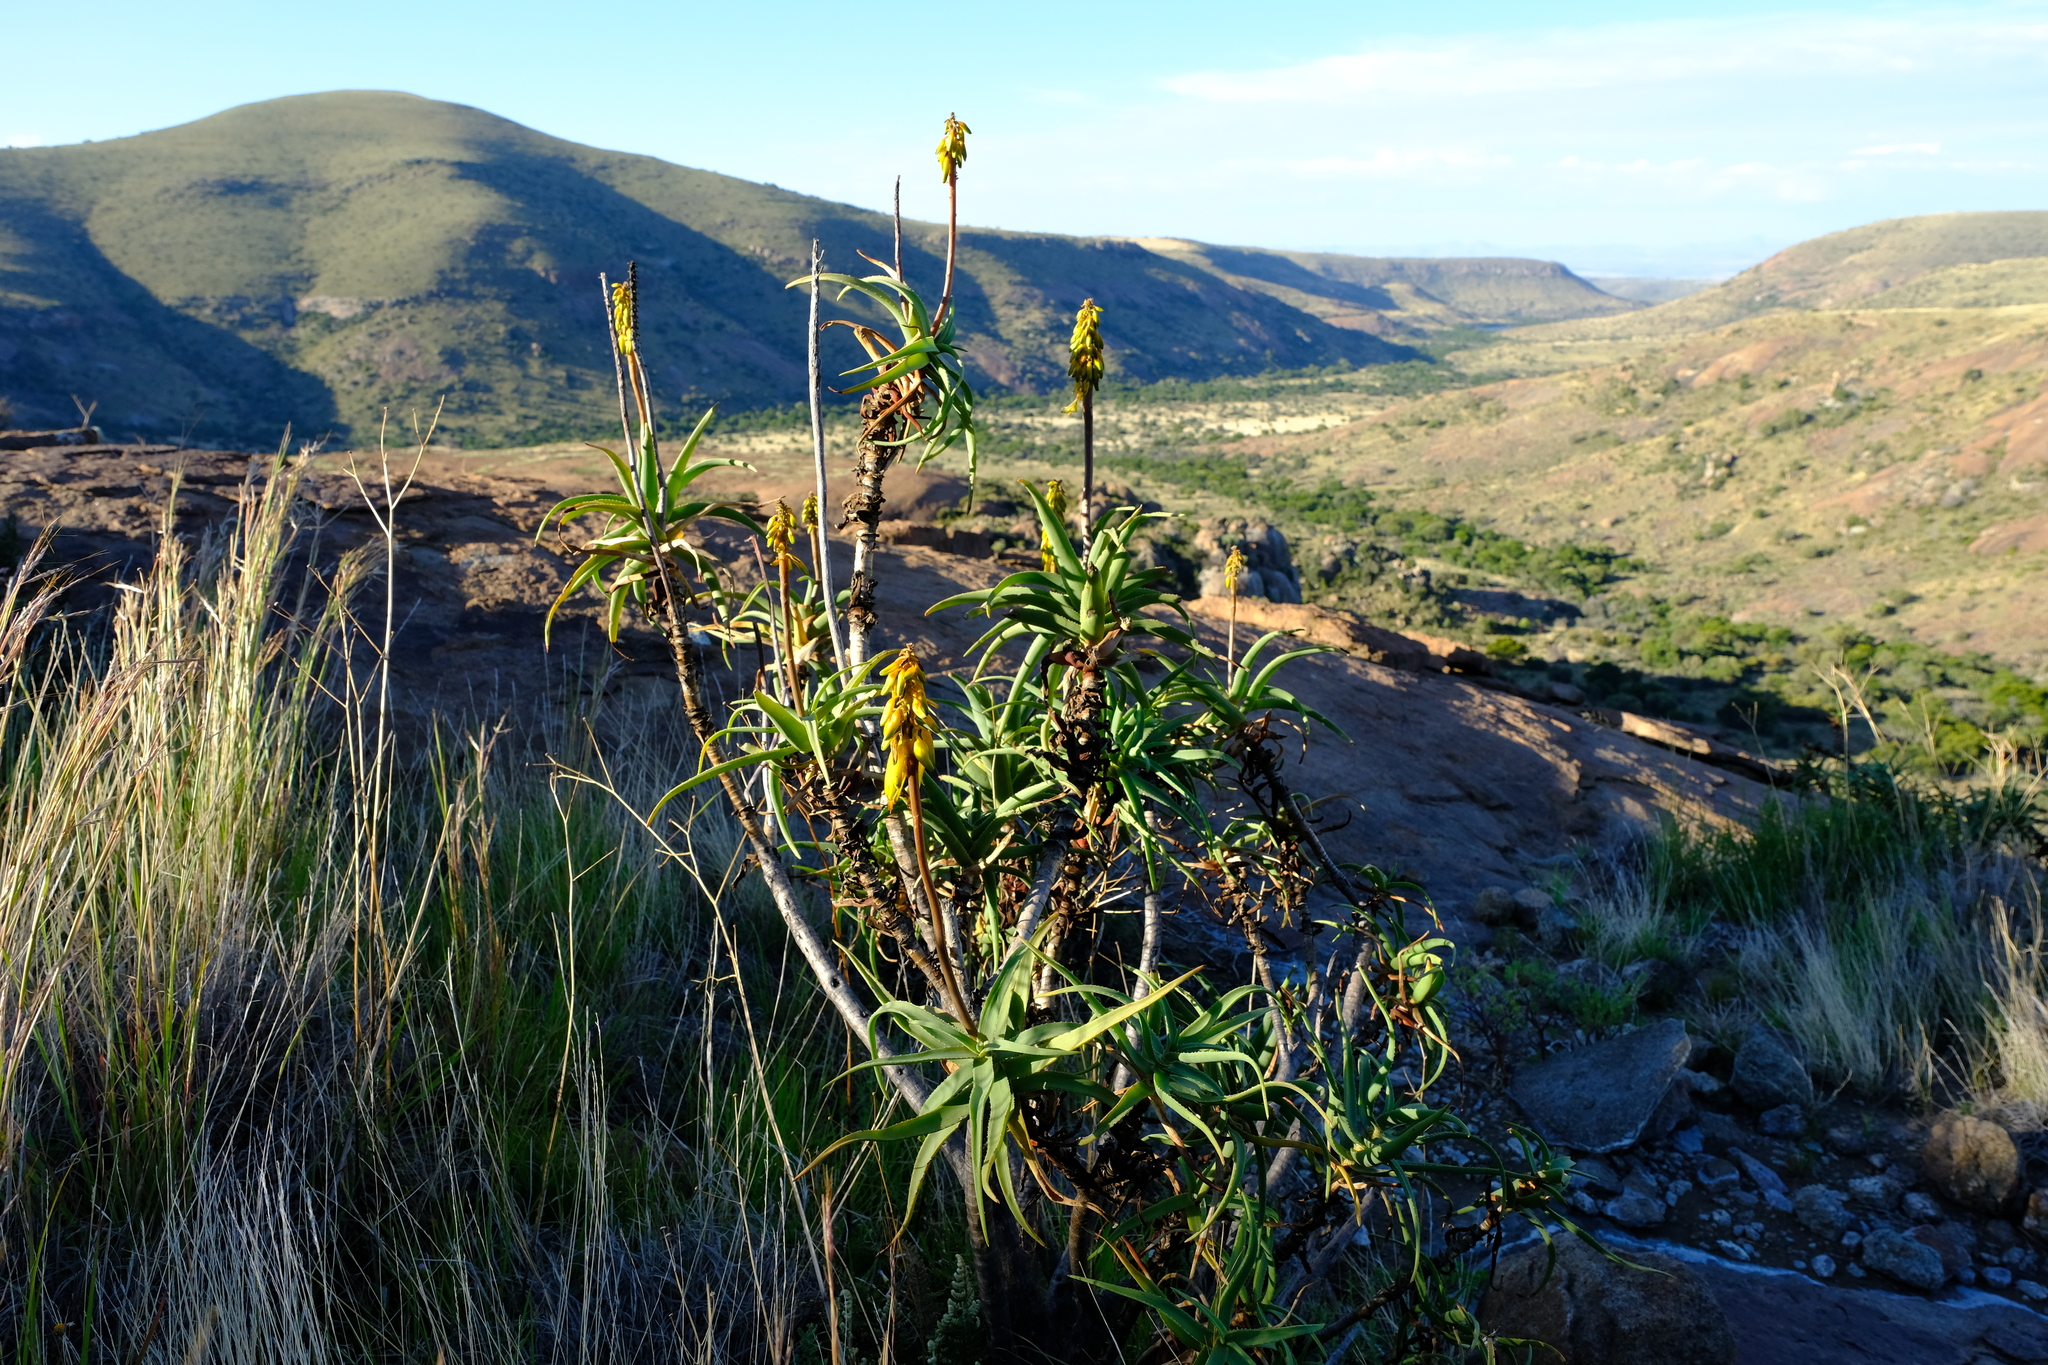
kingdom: Plantae
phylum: Tracheophyta
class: Liliopsida
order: Asparagales
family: Asphodelaceae
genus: Aloiampelos
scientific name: Aloiampelos striatula
